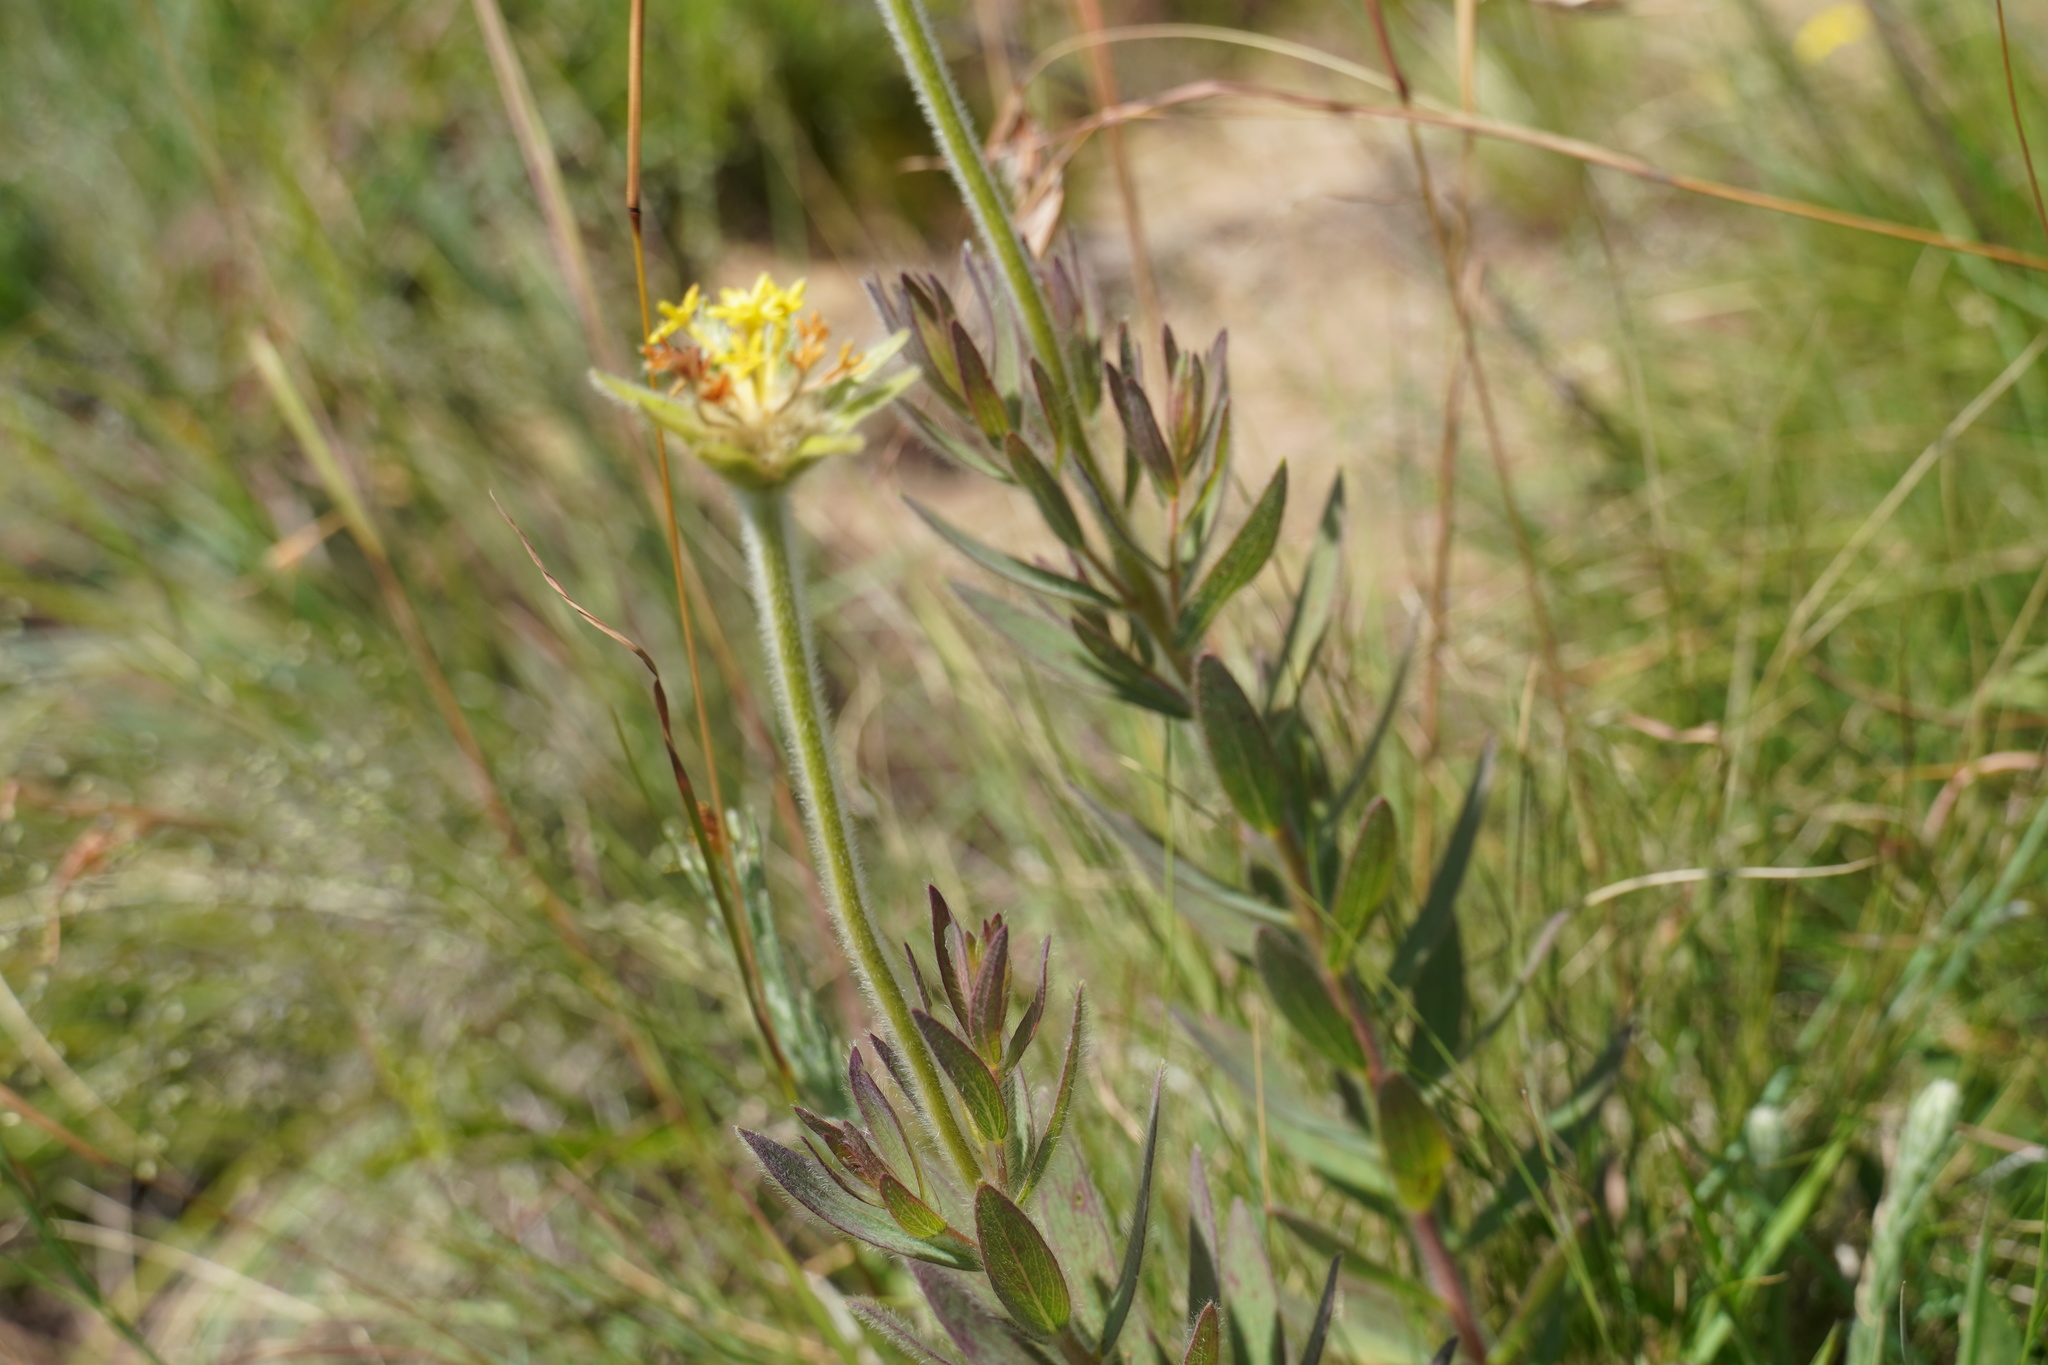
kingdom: Plantae
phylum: Tracheophyta
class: Magnoliopsida
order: Malvales
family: Thymelaeaceae
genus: Gnidia
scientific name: Gnidia kraussiana
